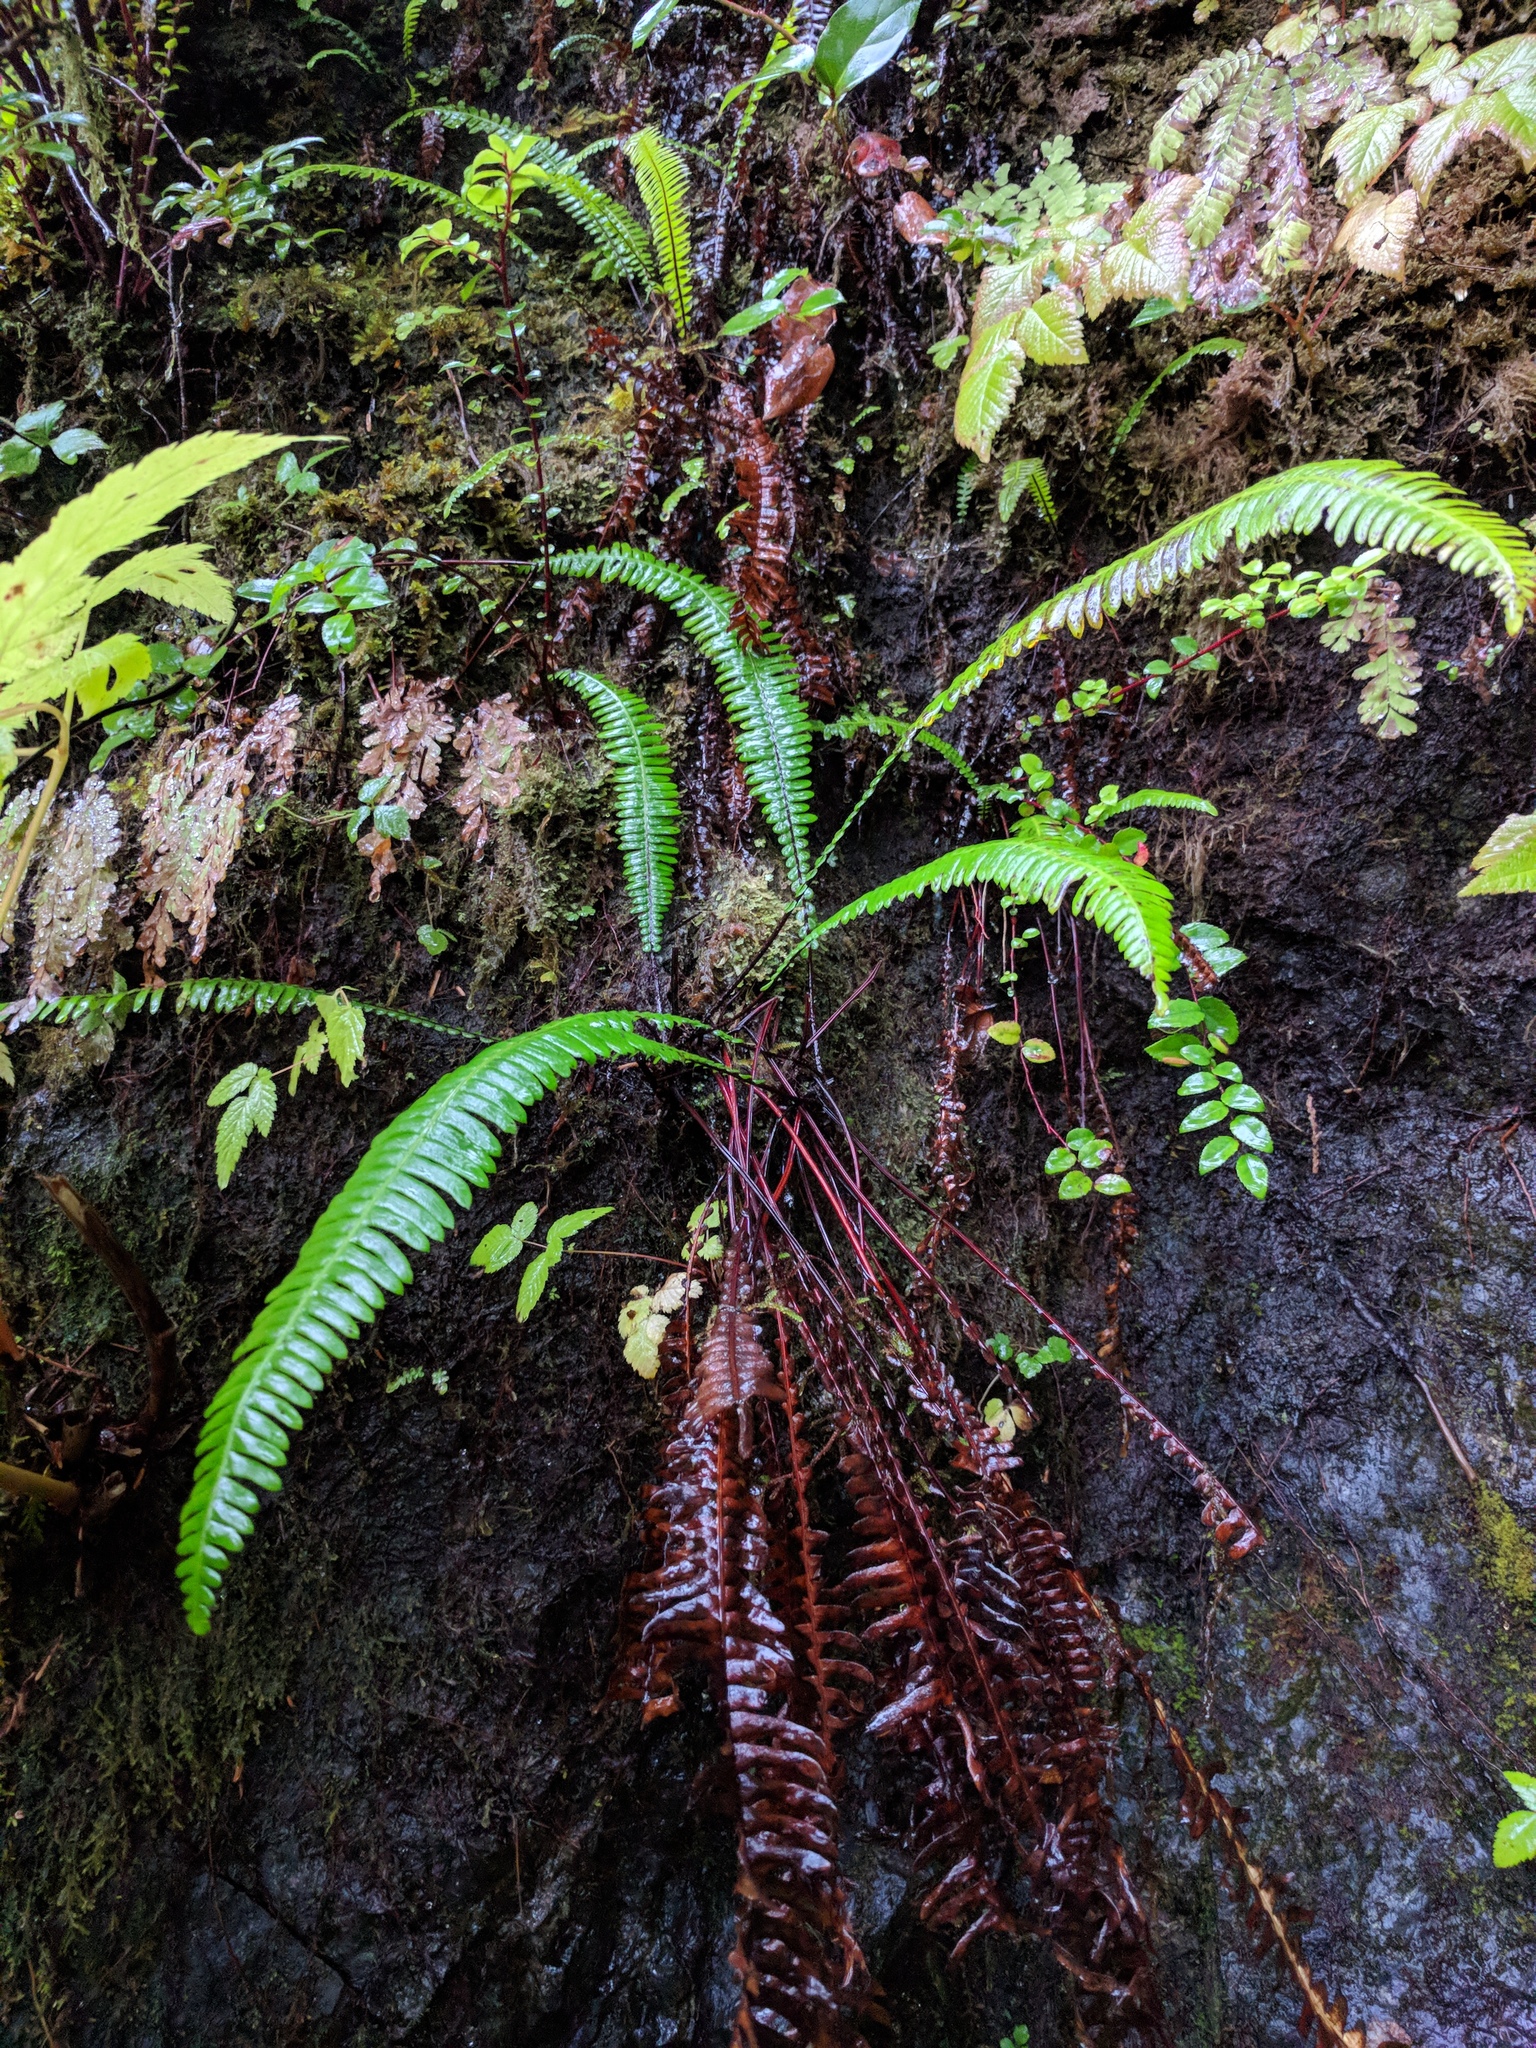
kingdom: Plantae
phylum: Tracheophyta
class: Polypodiopsida
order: Polypodiales
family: Blechnaceae
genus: Struthiopteris
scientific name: Struthiopteris spicant
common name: Deer fern
